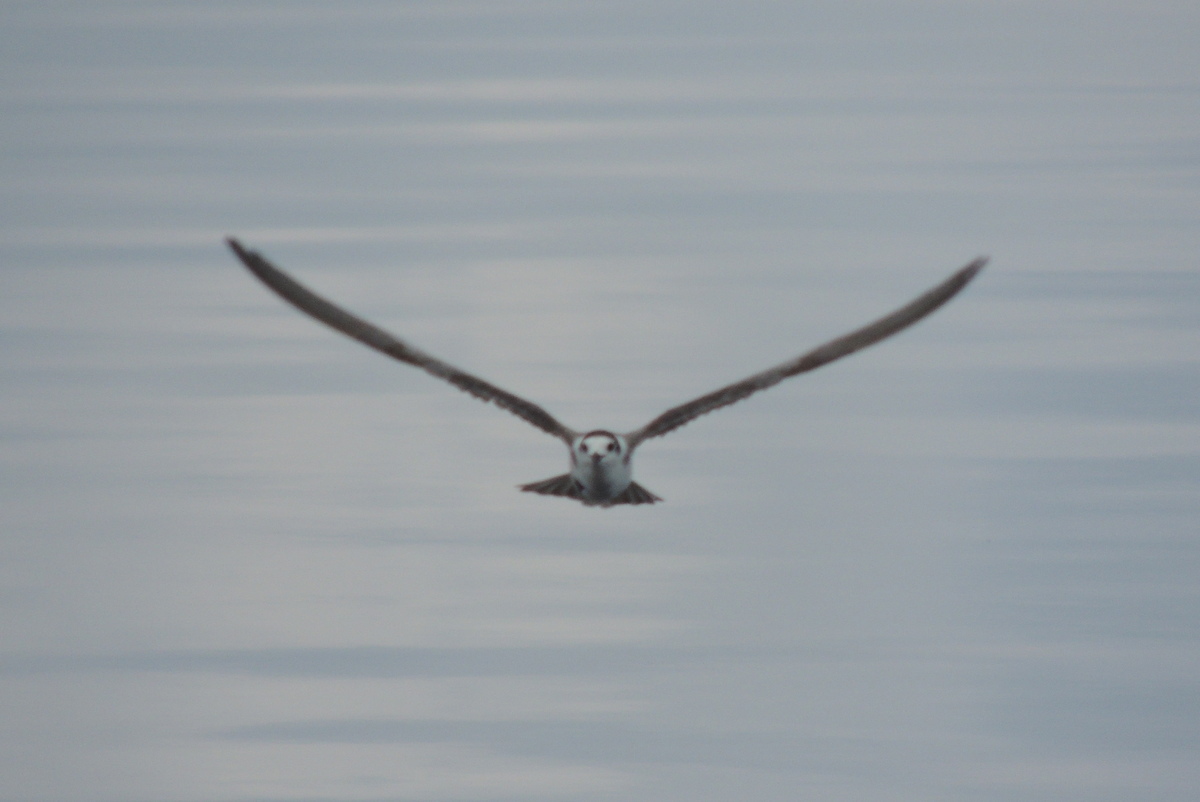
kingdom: Animalia
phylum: Chordata
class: Aves
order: Charadriiformes
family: Laridae
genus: Chlidonias
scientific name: Chlidonias niger
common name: Black tern
